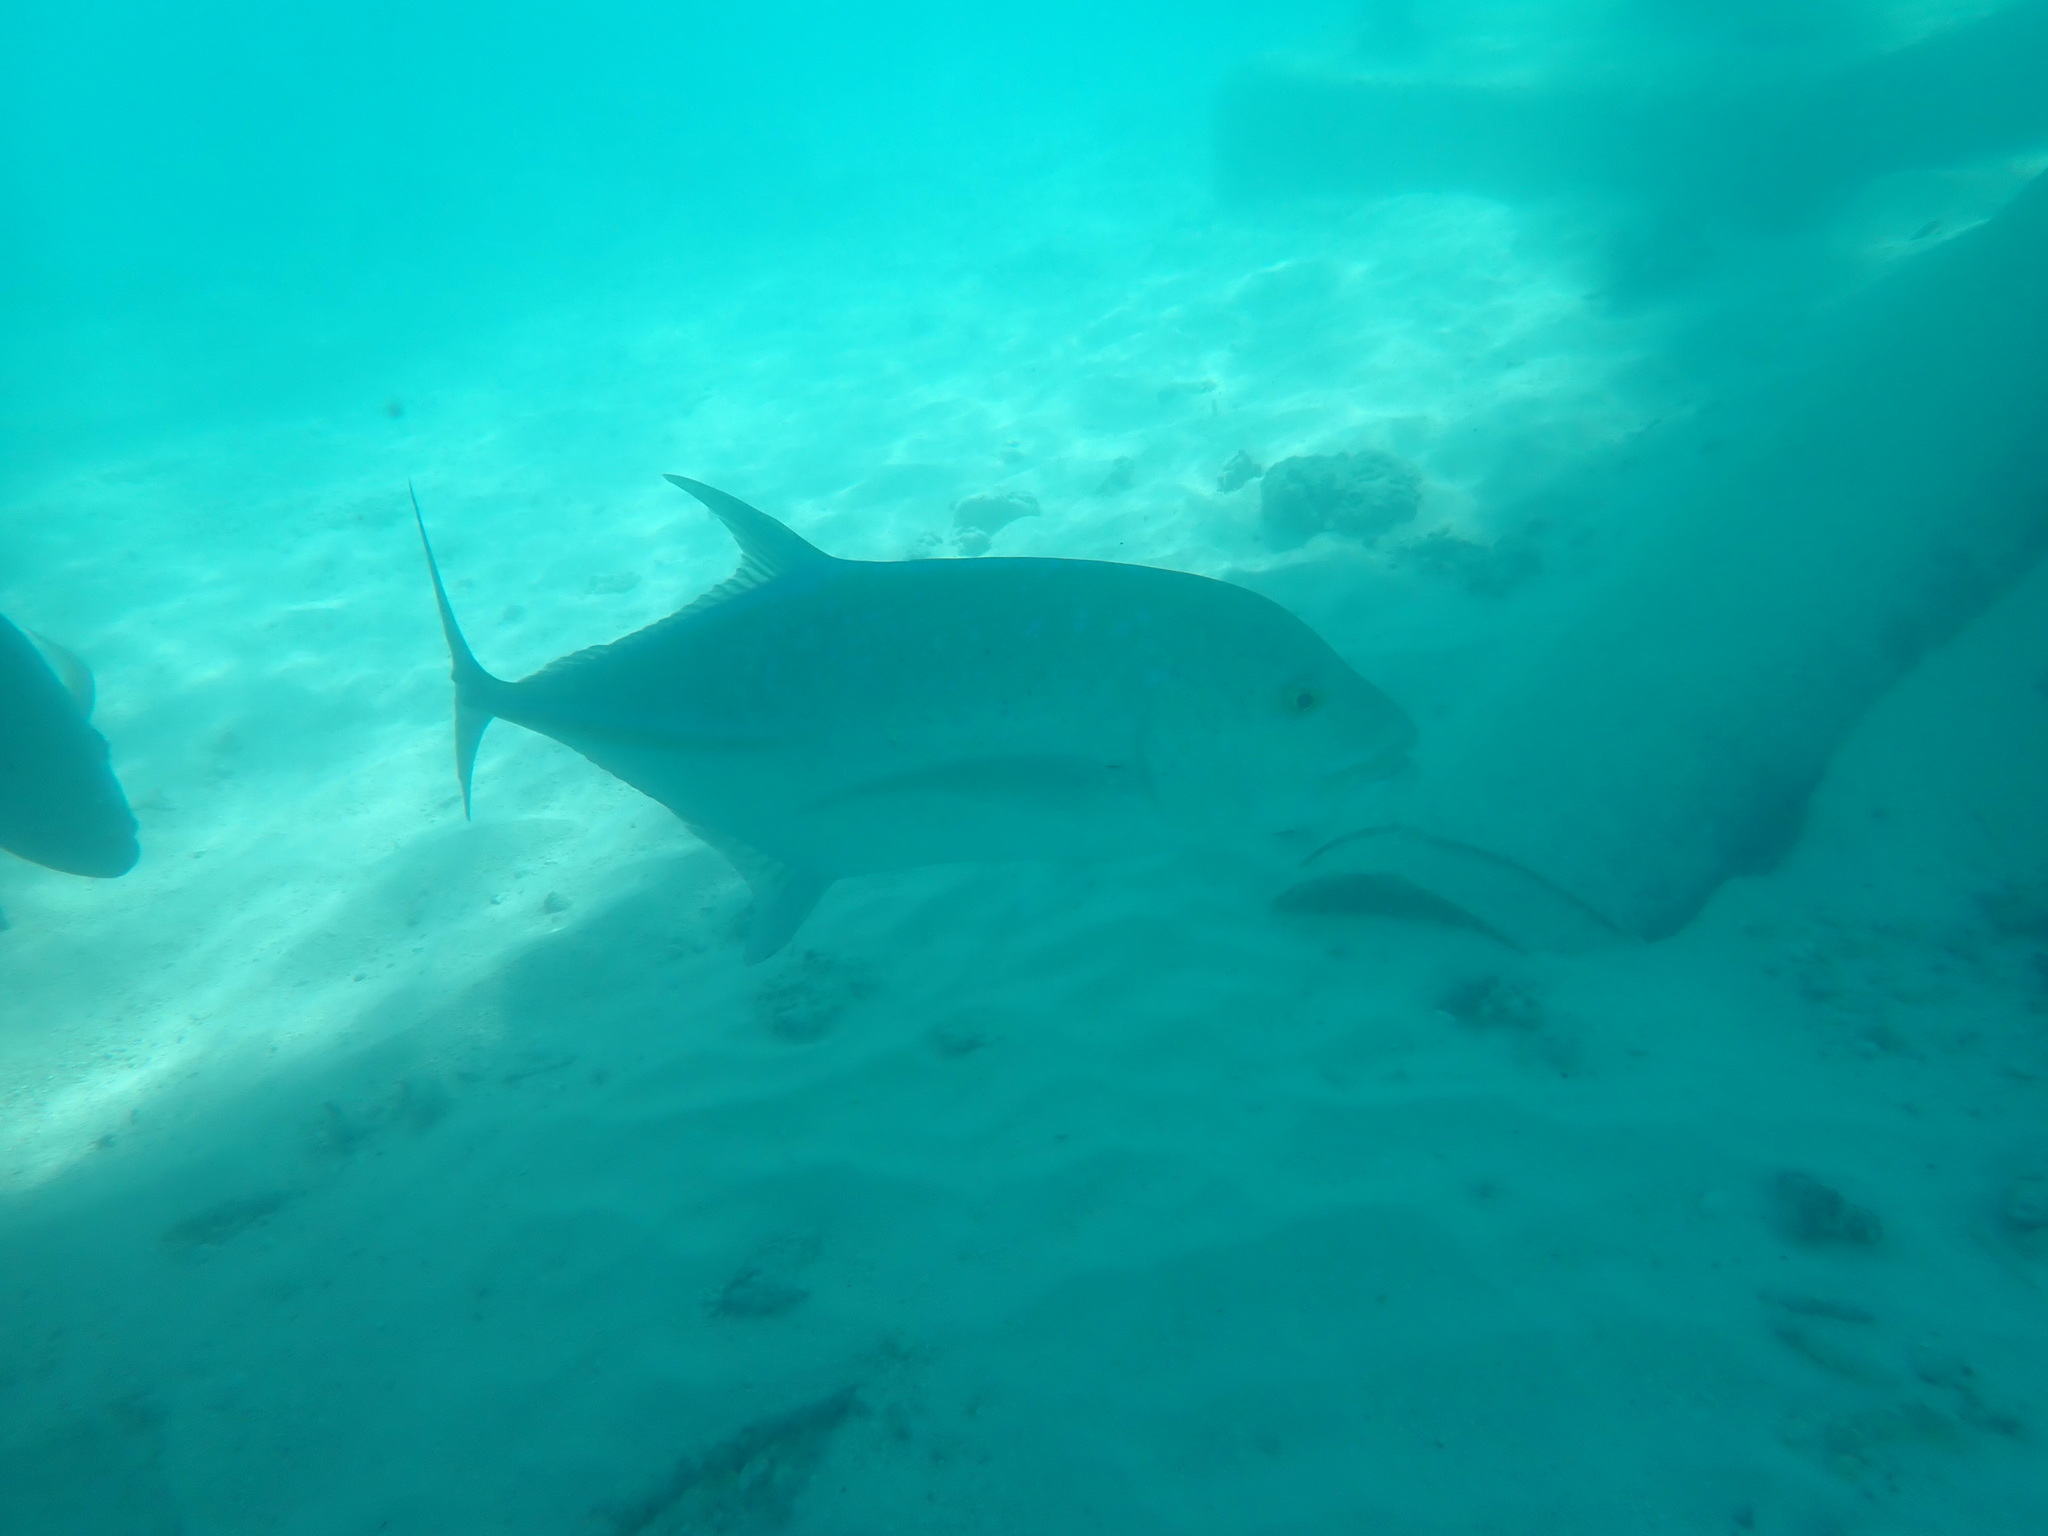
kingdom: Animalia
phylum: Chordata
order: Perciformes
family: Carangidae
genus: Caranx
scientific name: Caranx melampygus
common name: Bluefin trevally
